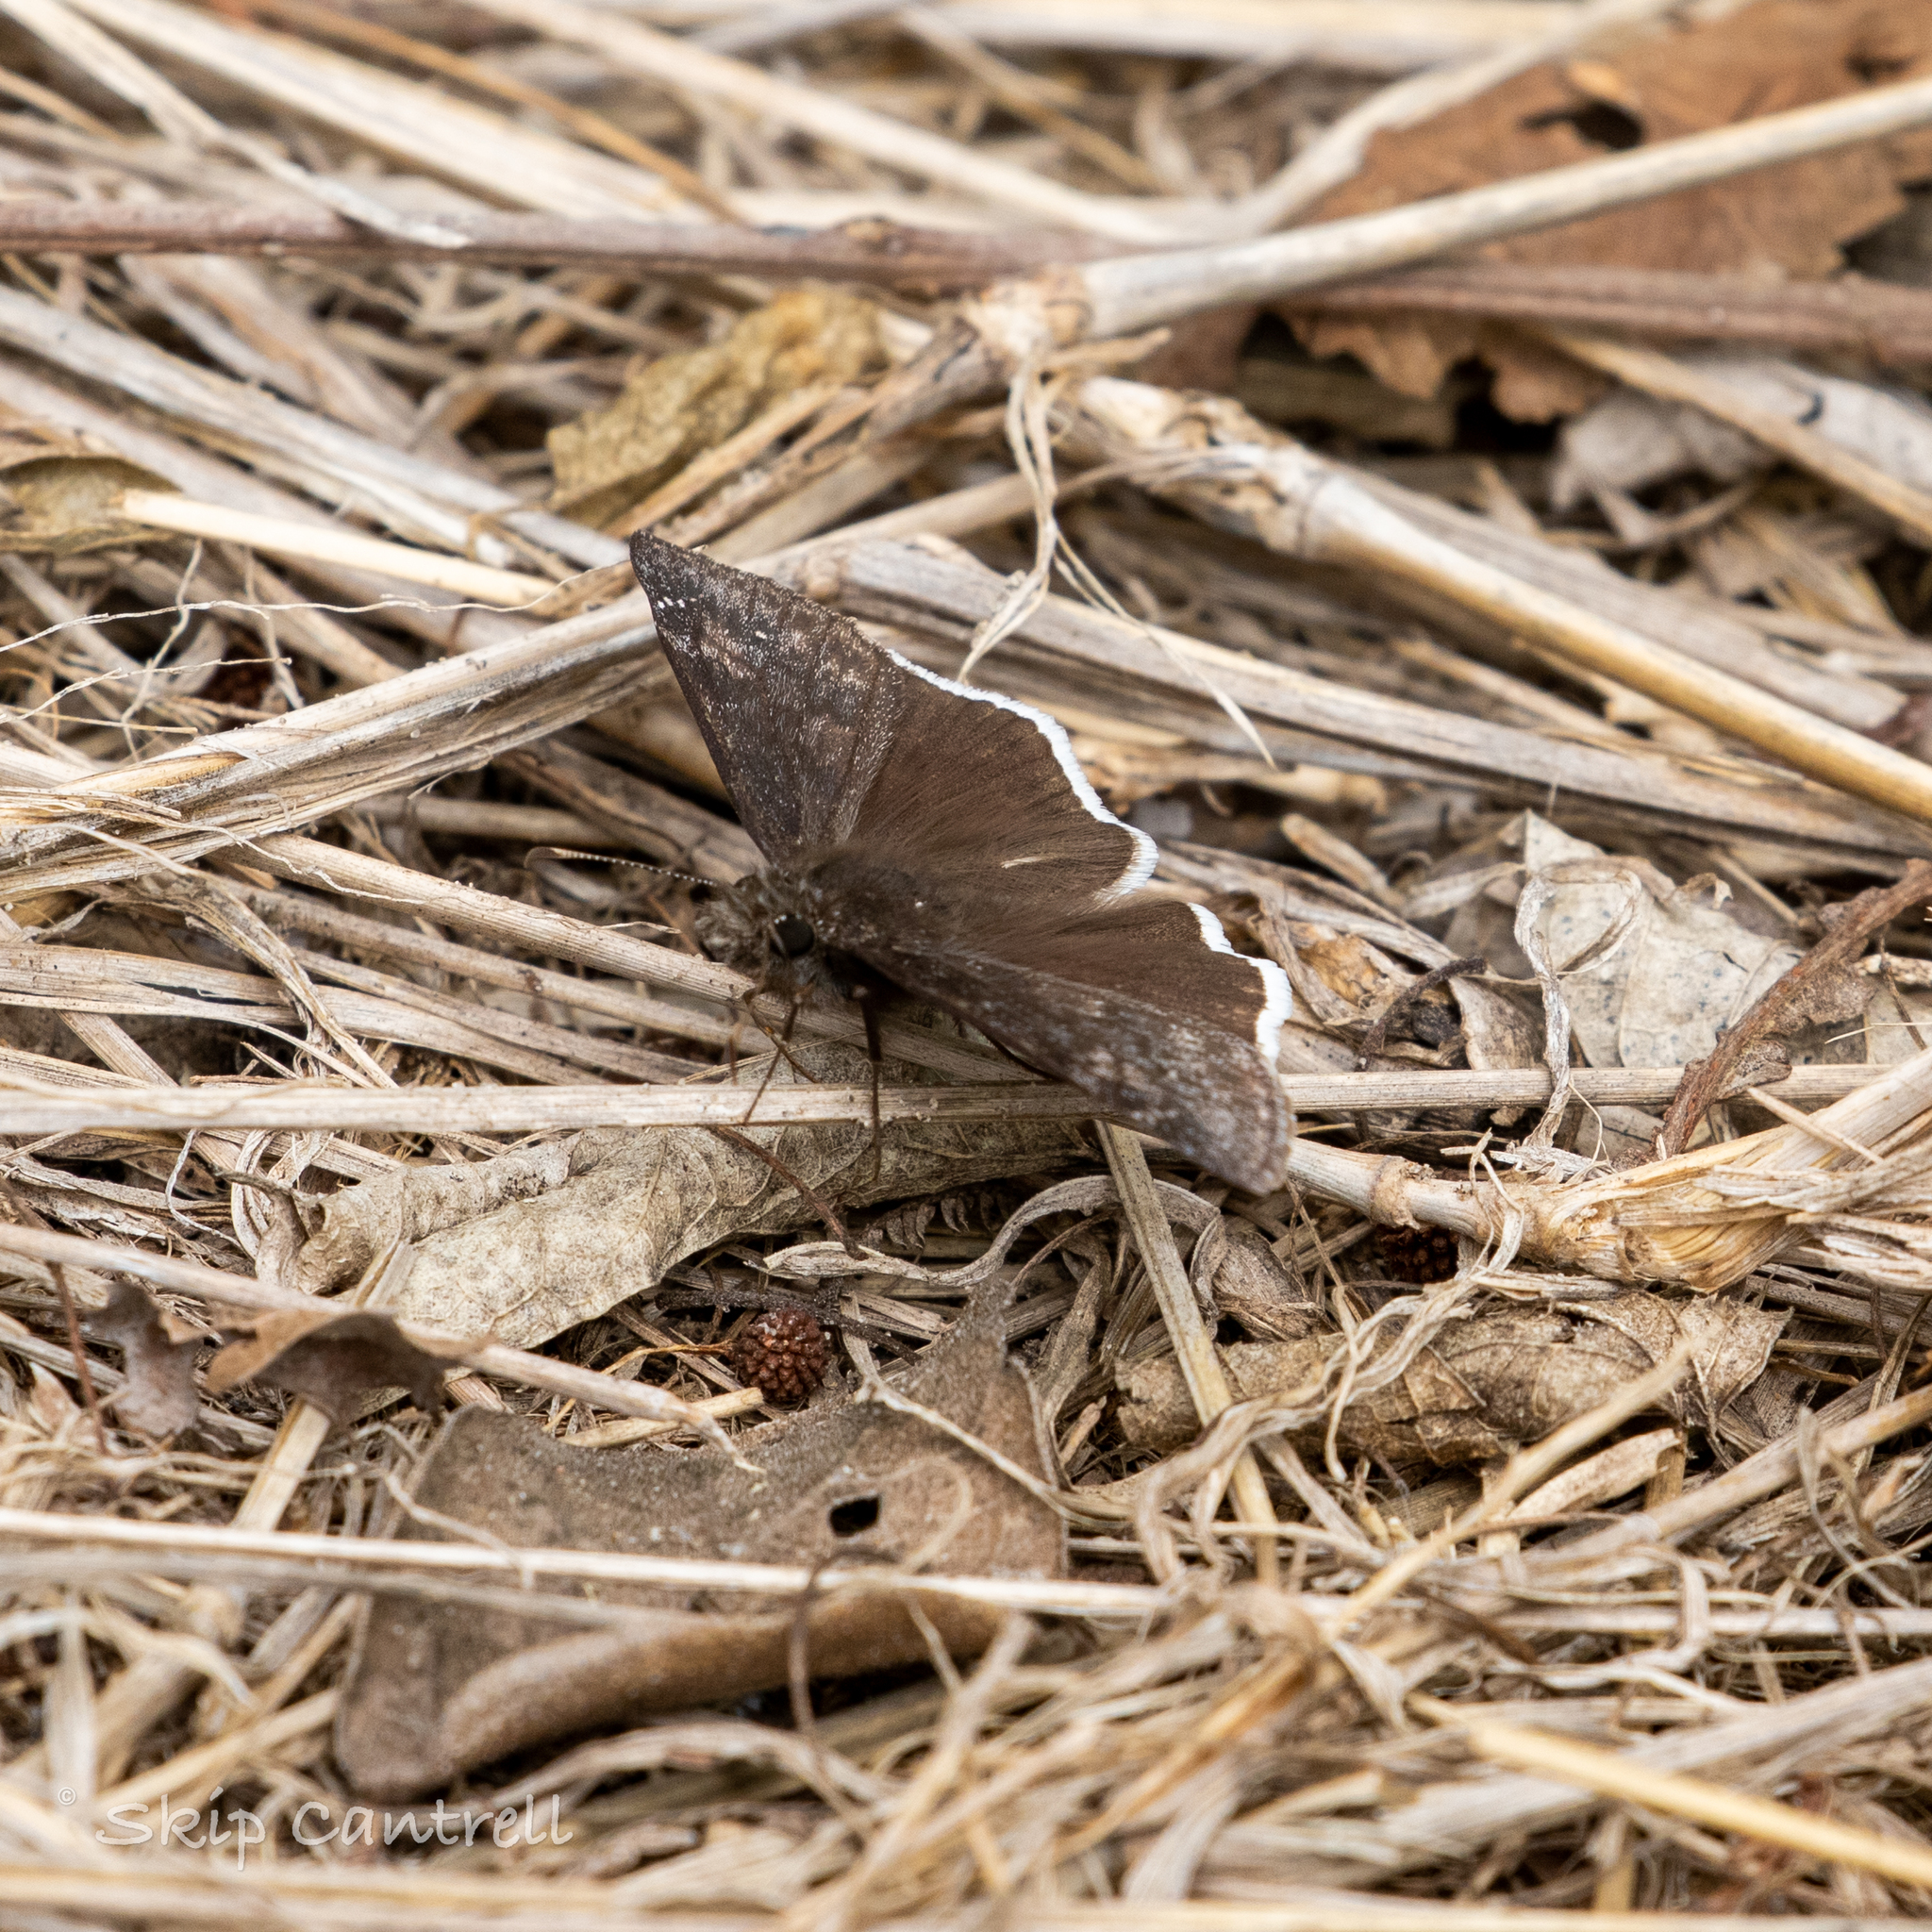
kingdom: Animalia
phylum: Arthropoda
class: Insecta
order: Lepidoptera
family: Hesperiidae
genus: Erynnis
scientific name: Erynnis funeralis
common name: Funereal duskywing
